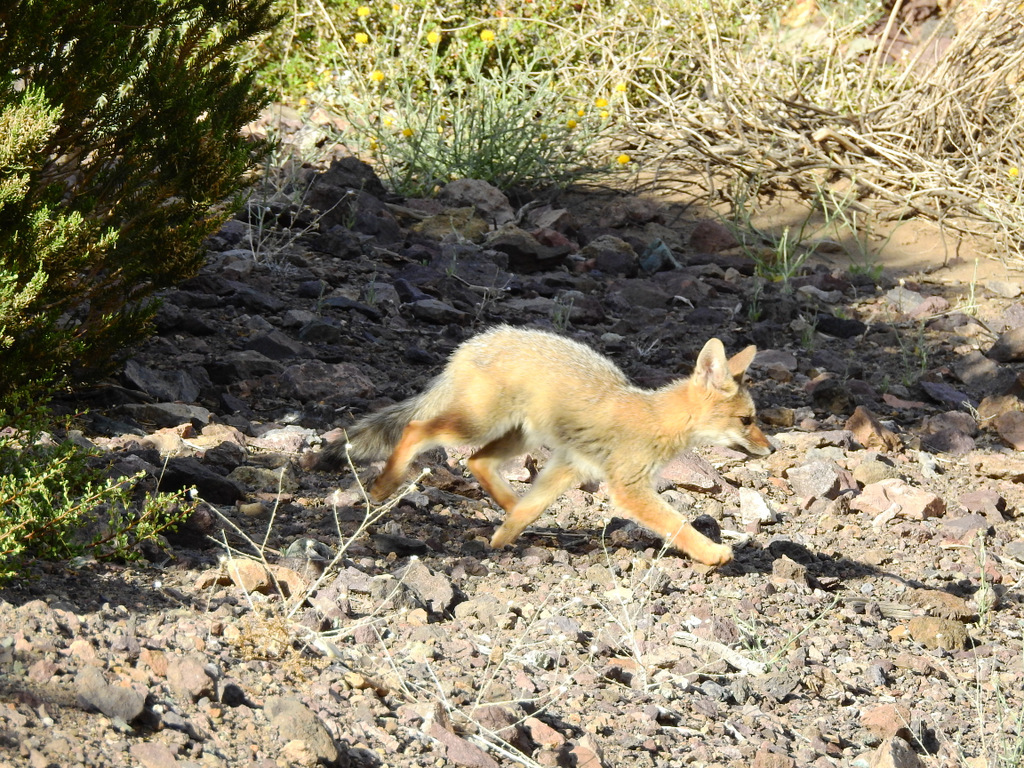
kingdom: Animalia
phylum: Chordata
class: Mammalia
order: Carnivora
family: Canidae
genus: Lycalopex
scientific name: Lycalopex culpaeus
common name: Culpeo
